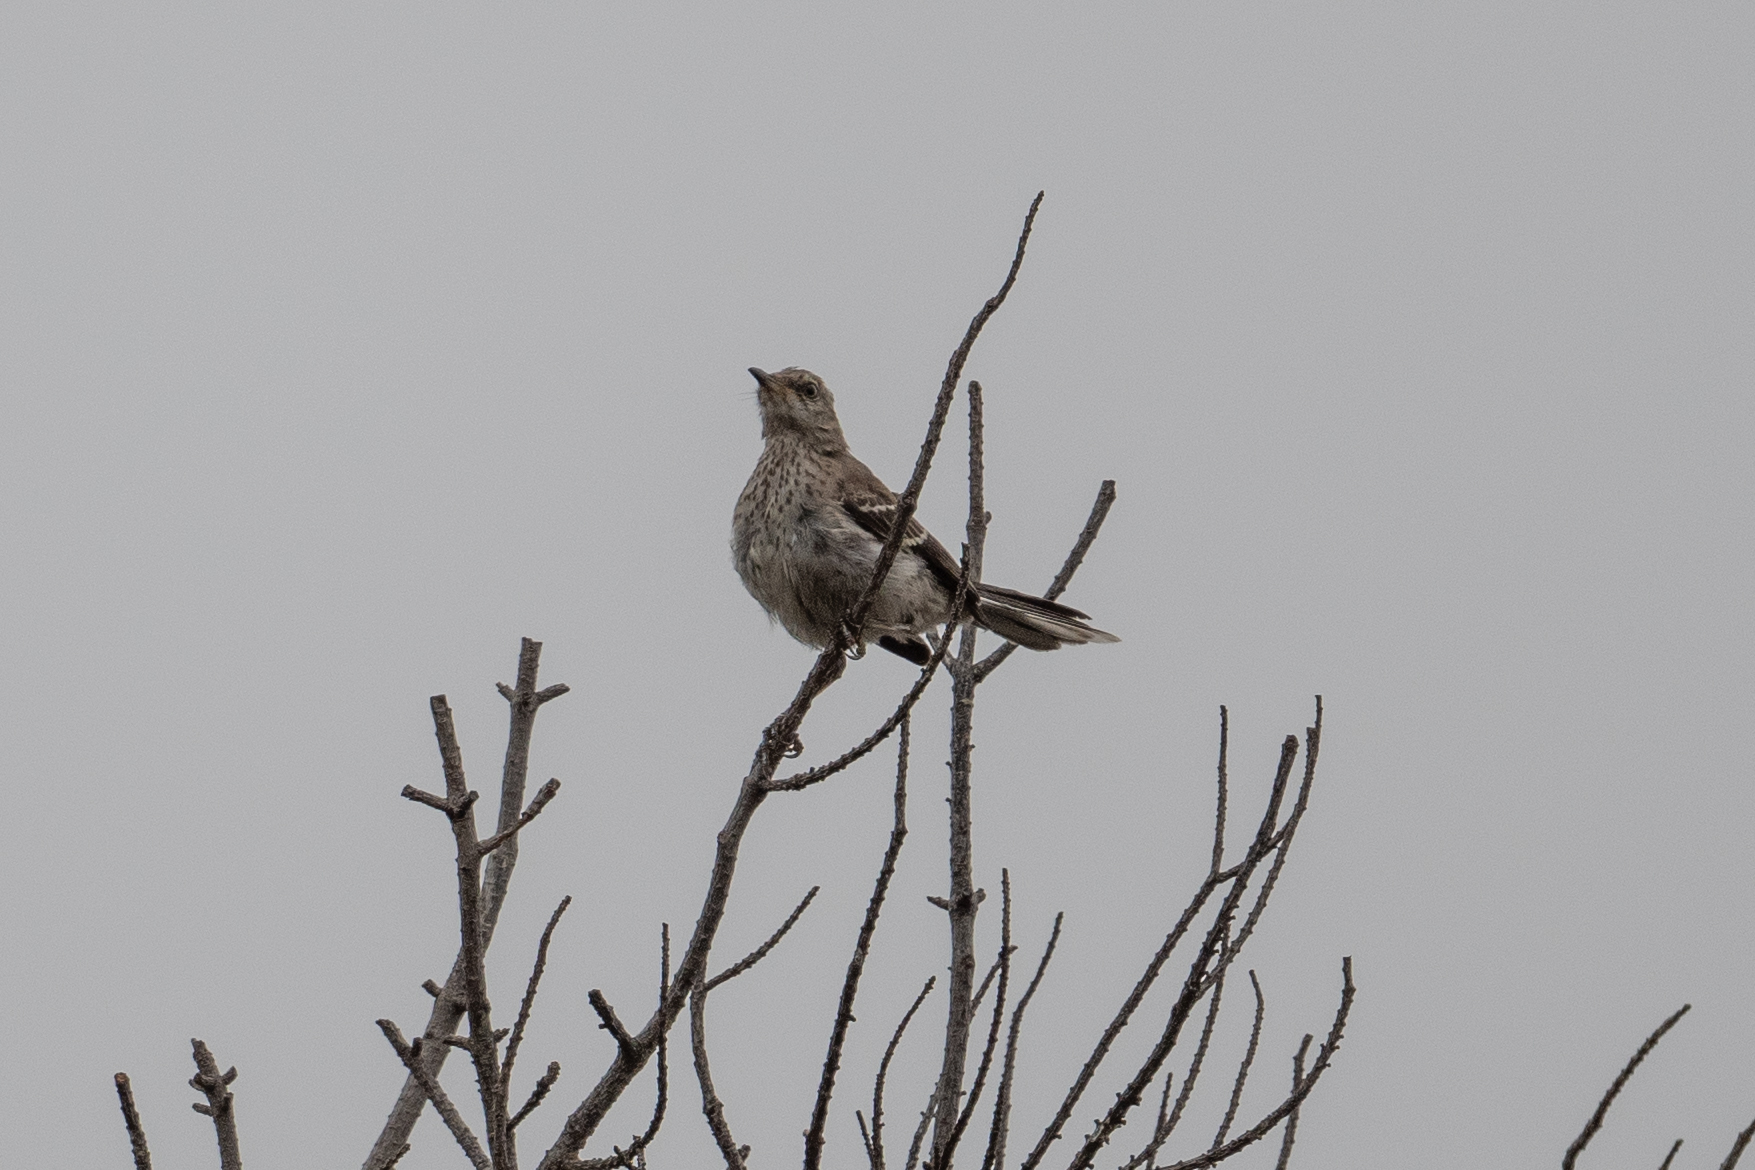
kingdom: Animalia
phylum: Chordata
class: Aves
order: Passeriformes
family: Mimidae
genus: Mimus
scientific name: Mimus polyglottos
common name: Northern mockingbird
